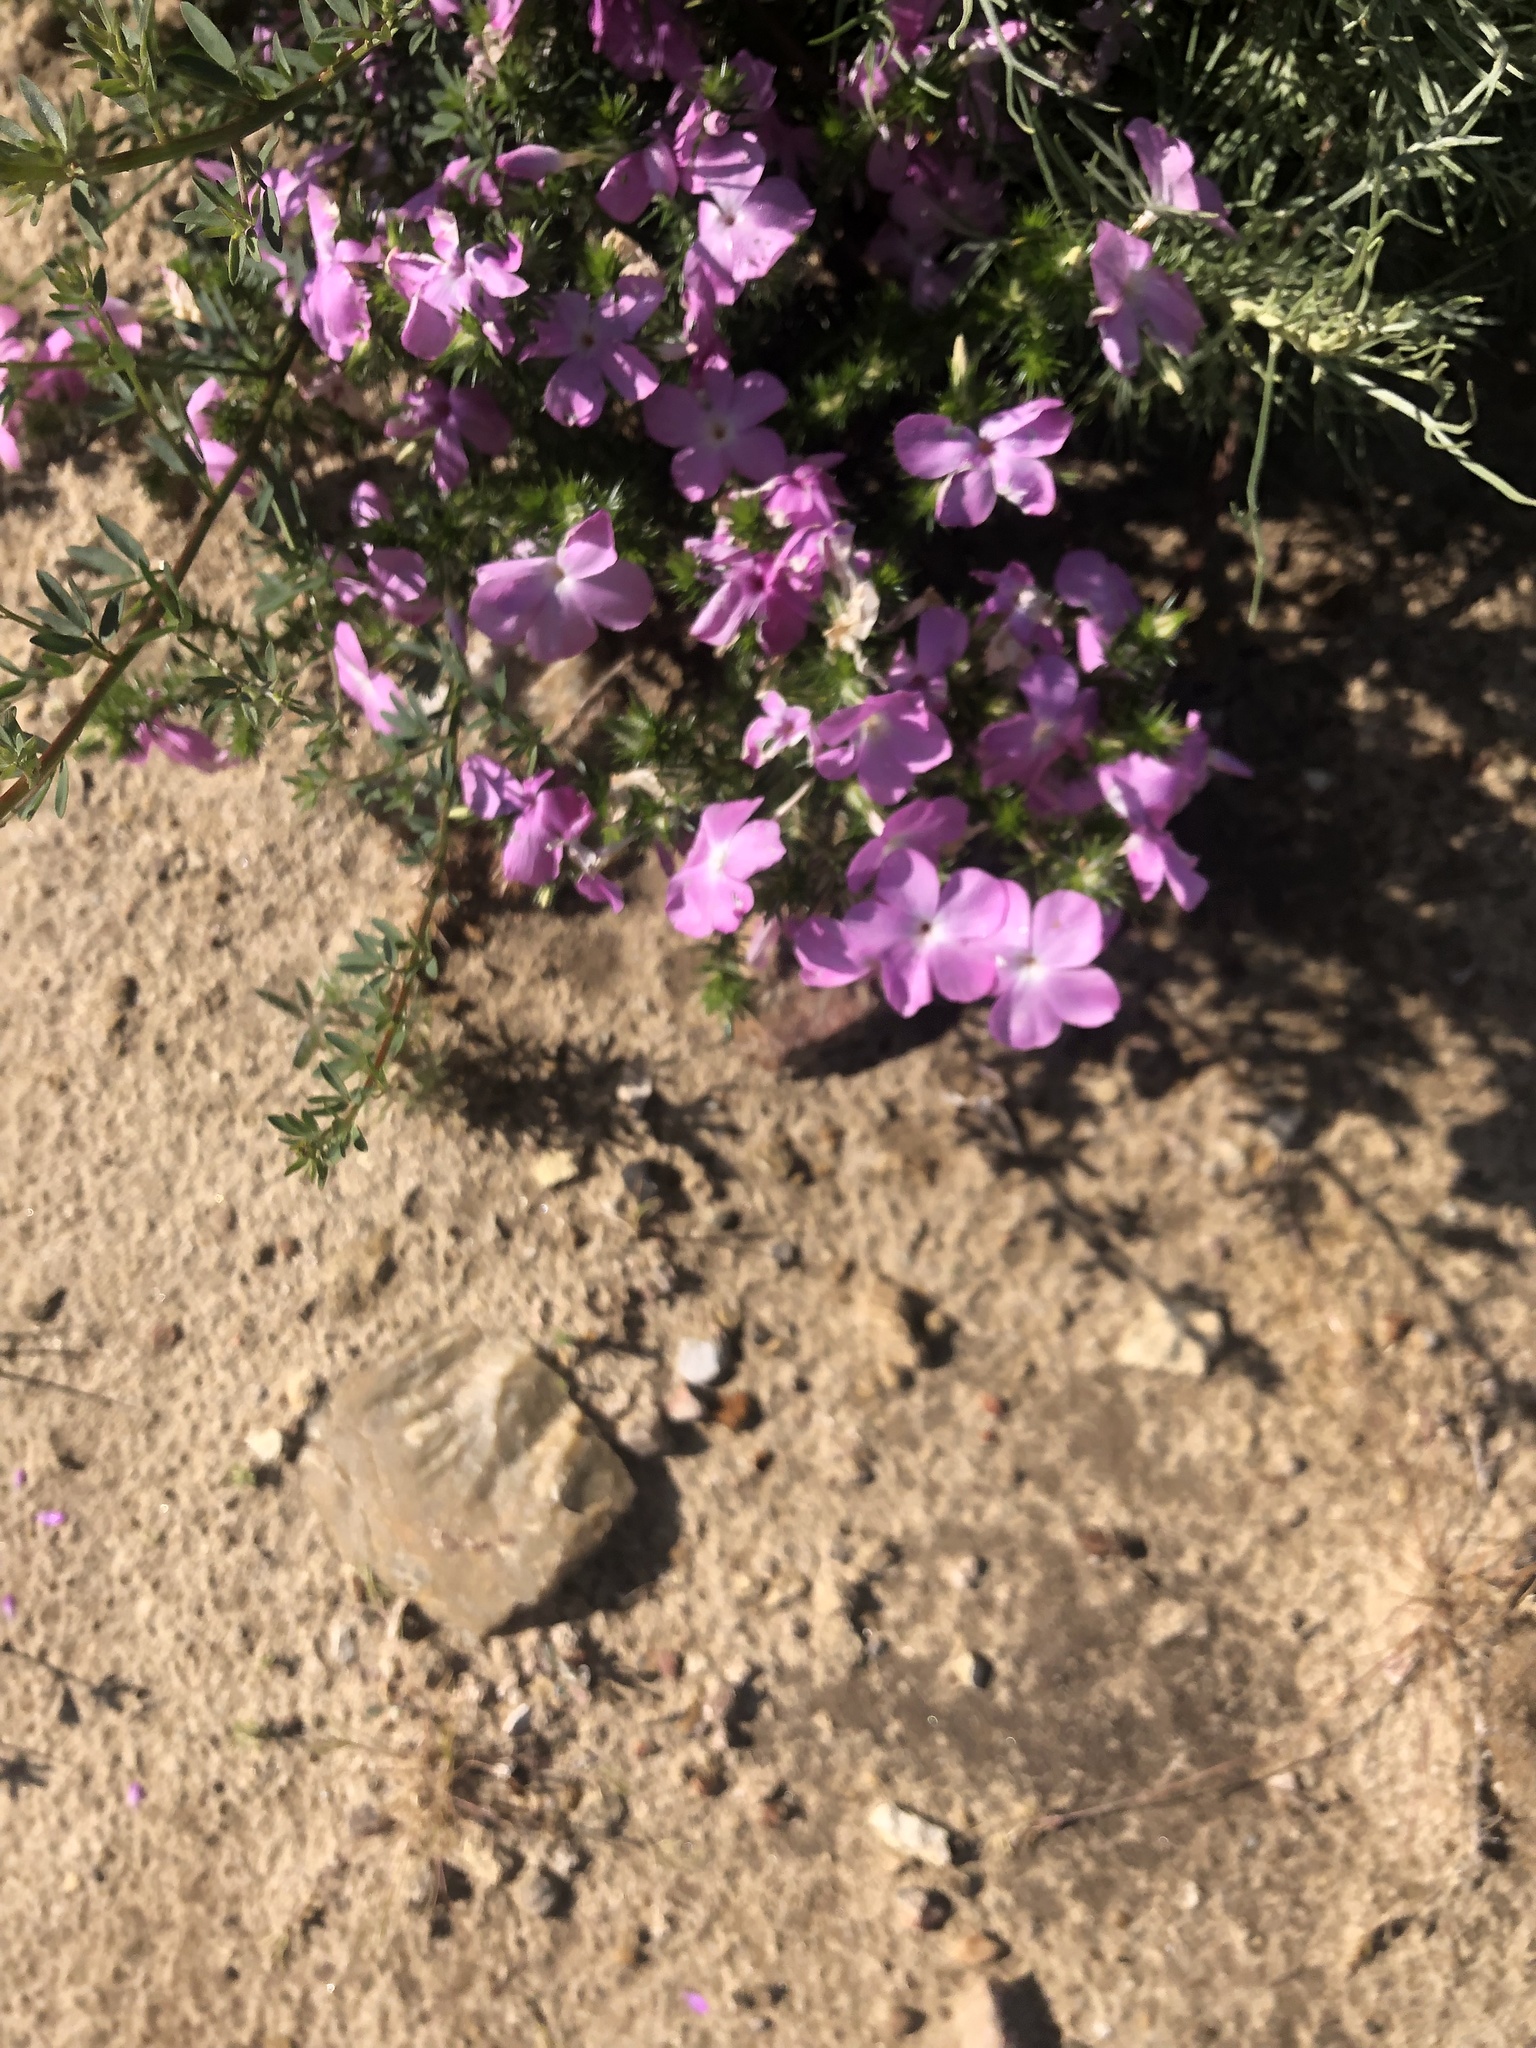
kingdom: Plantae
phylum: Tracheophyta
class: Magnoliopsida
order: Ericales
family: Polemoniaceae
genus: Linanthus
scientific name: Linanthus californicus
